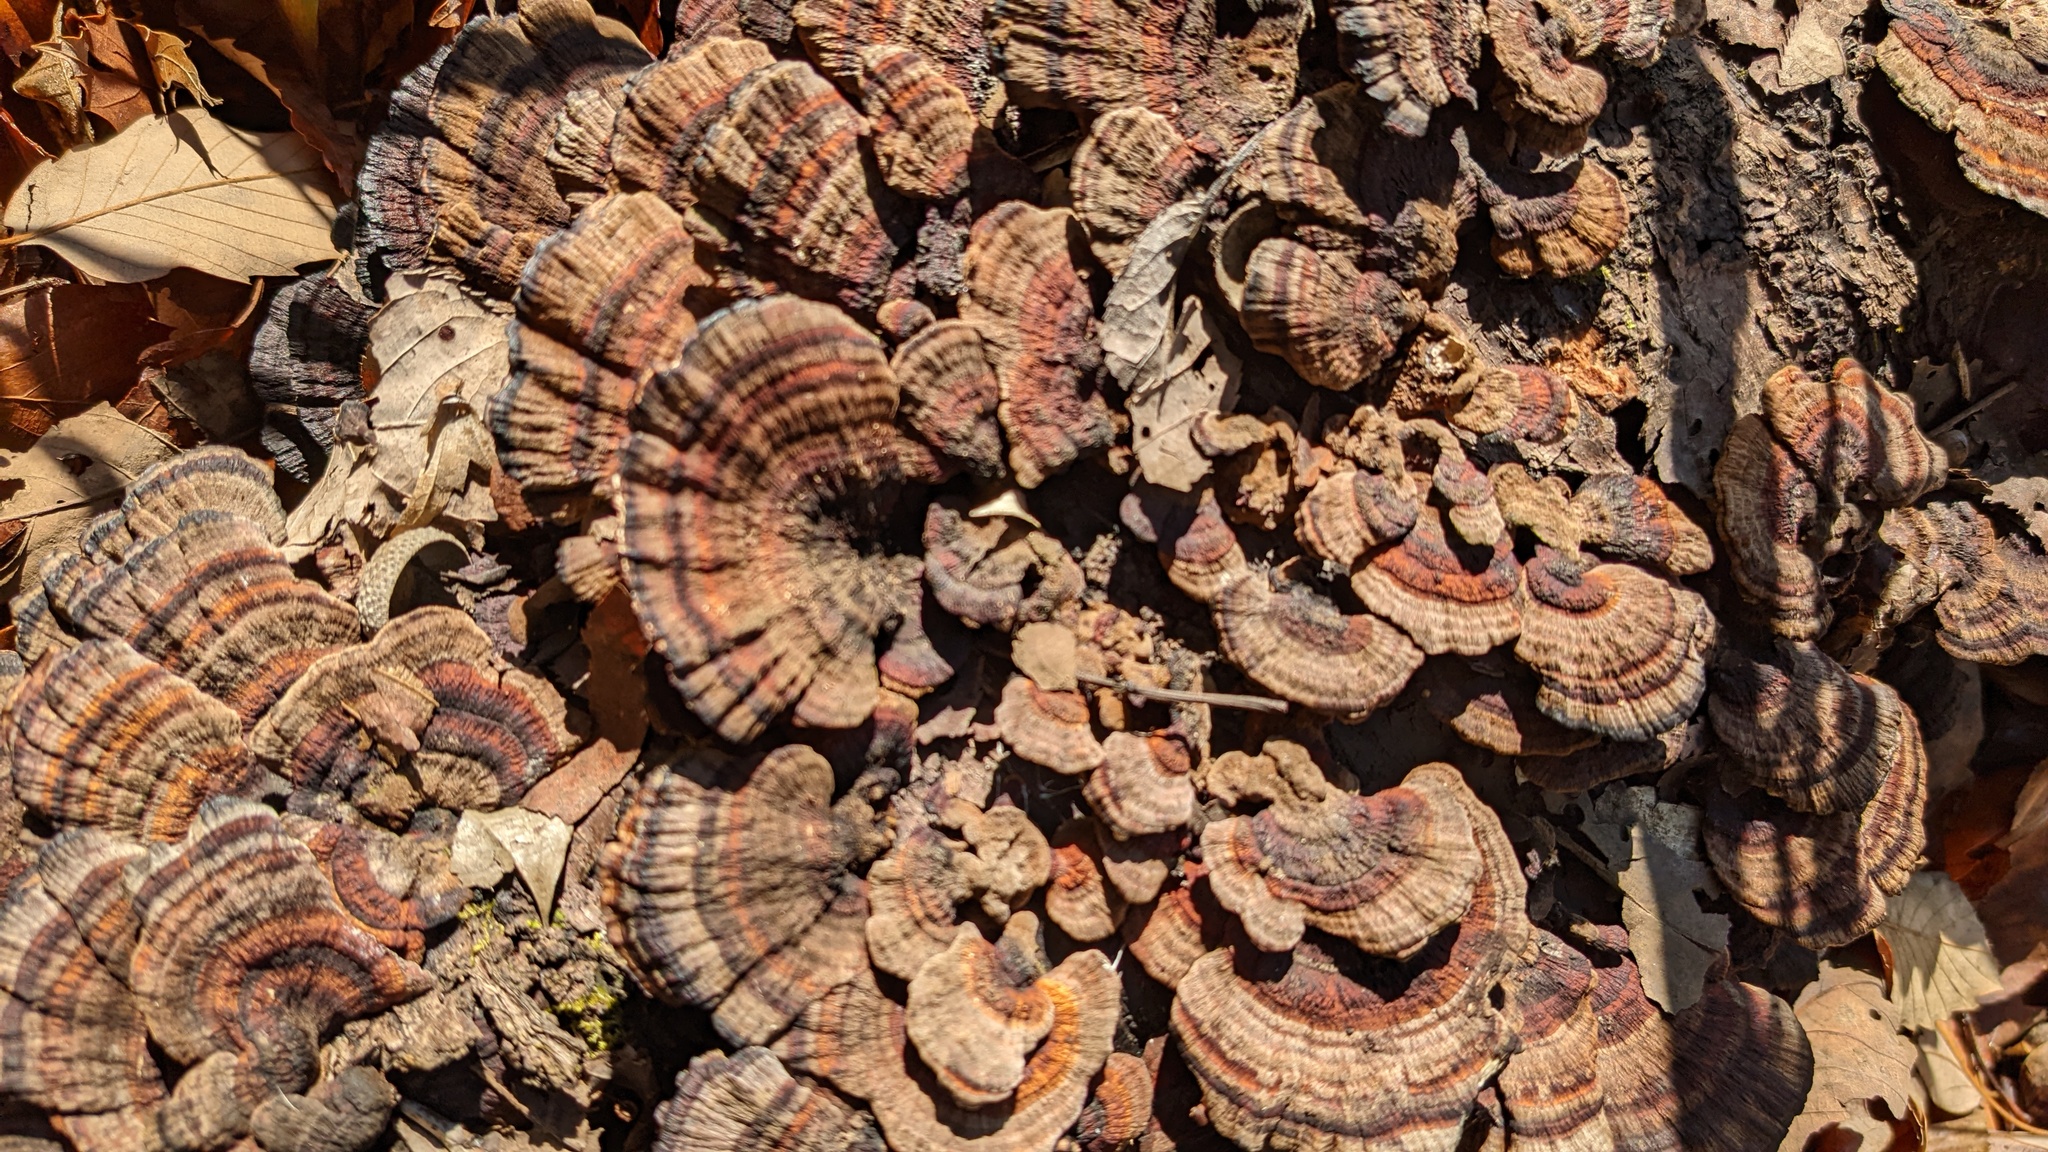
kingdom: Fungi
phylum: Basidiomycota
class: Agaricomycetes
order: Polyporales
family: Polyporaceae
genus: Daedaleopsis
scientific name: Daedaleopsis tricolor
